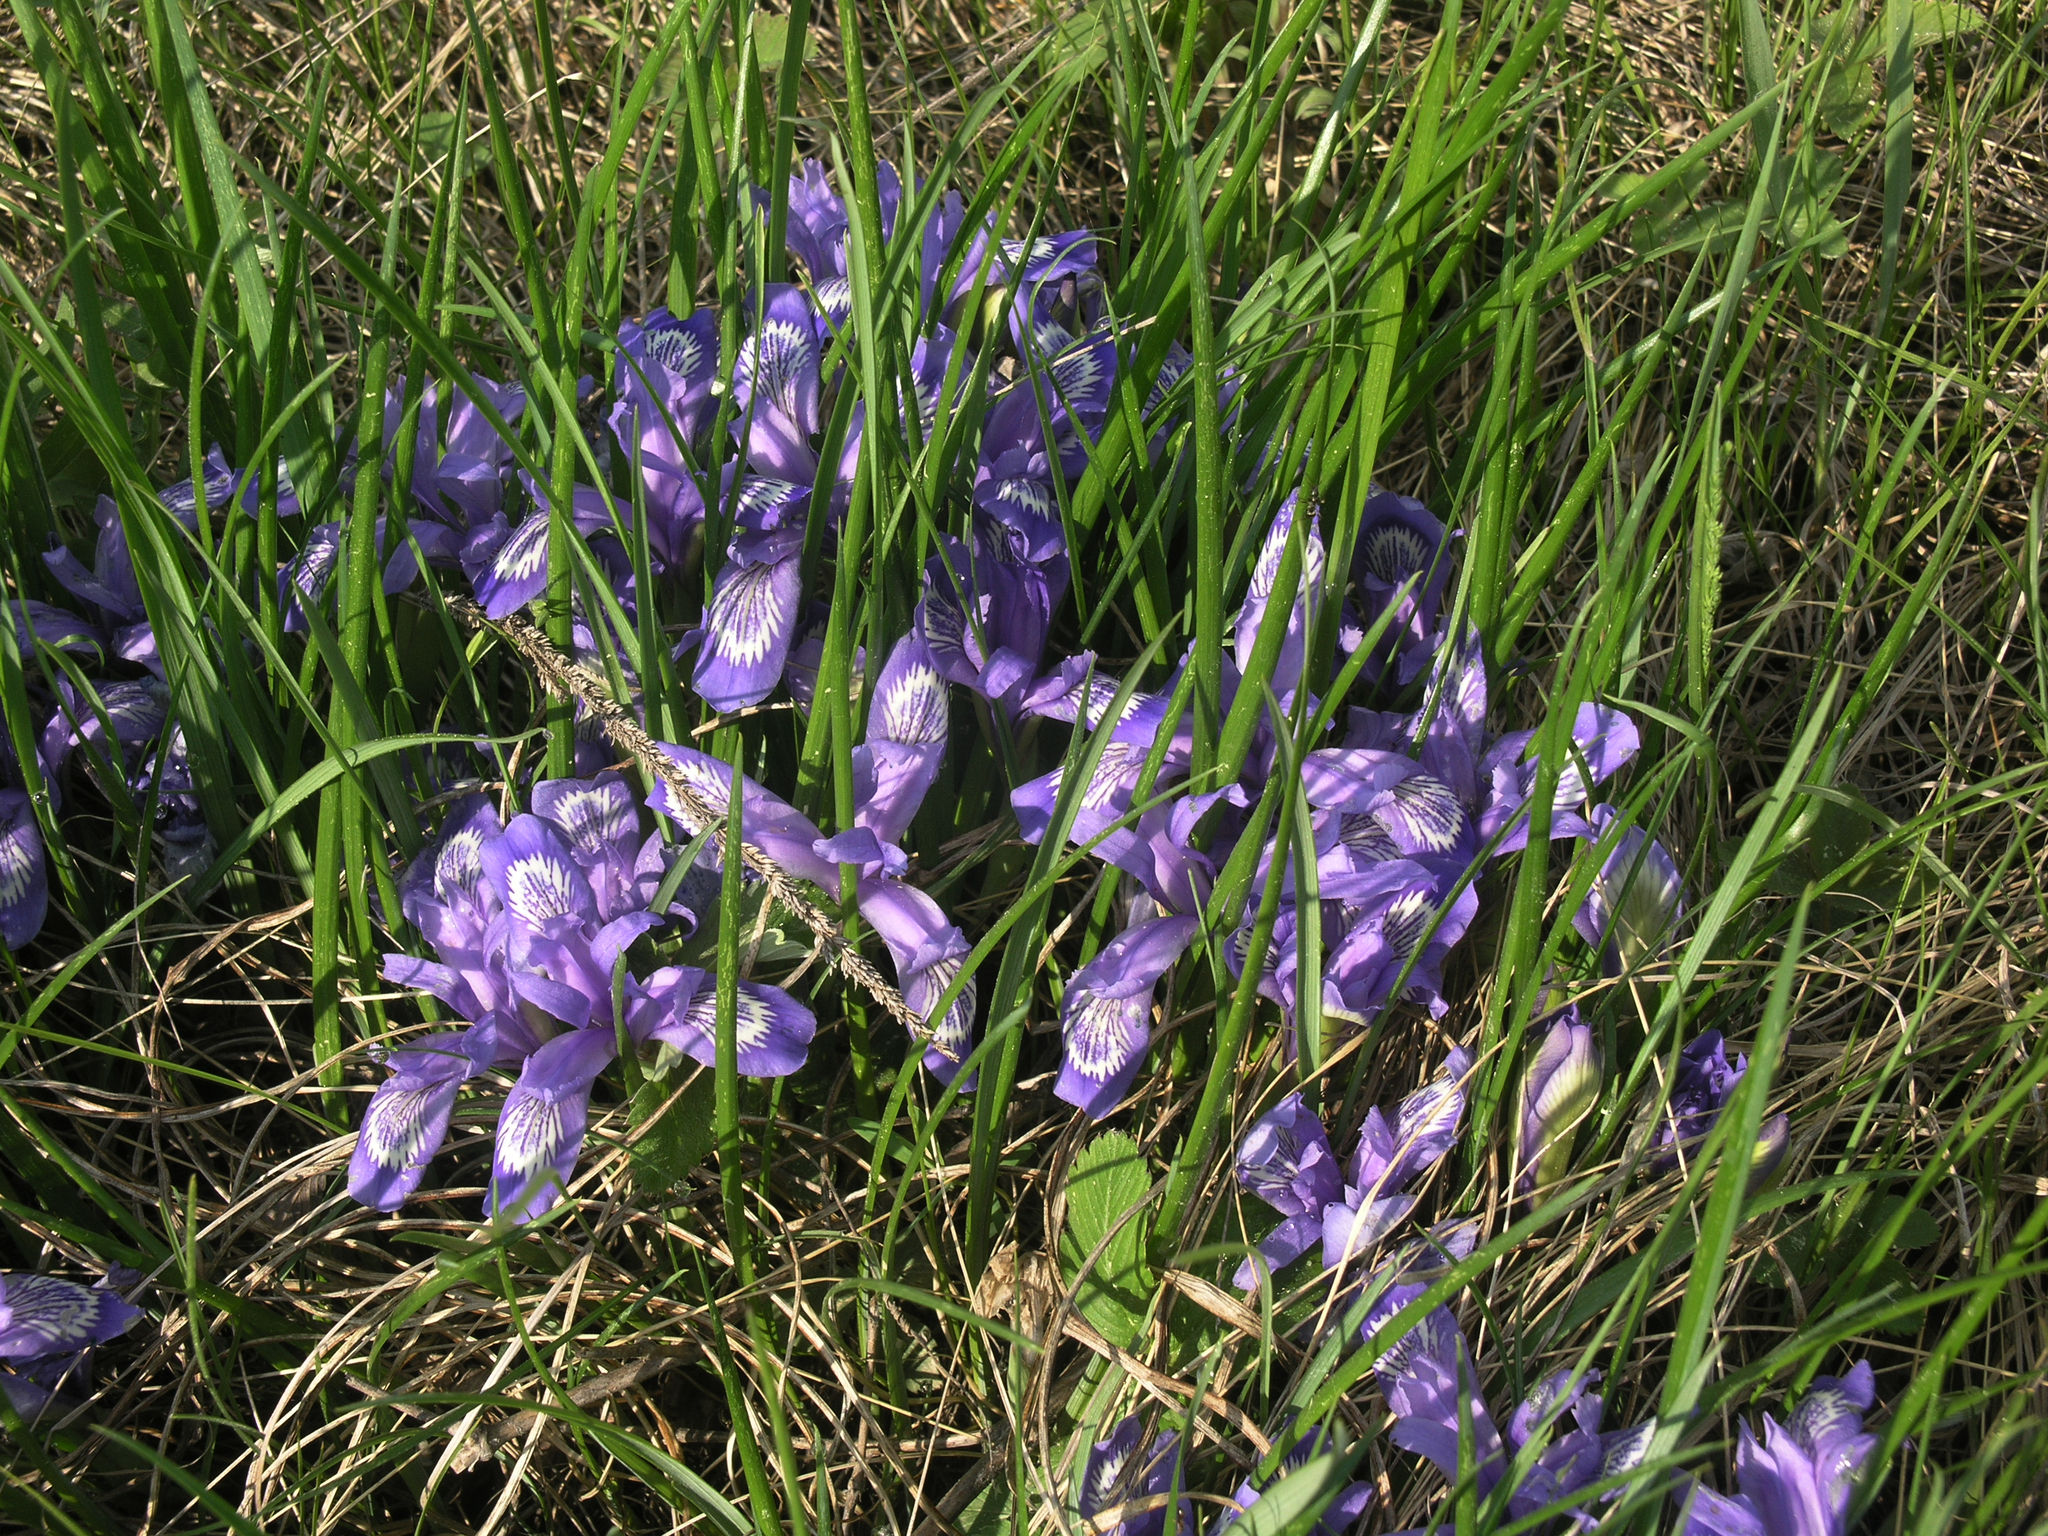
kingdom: Plantae
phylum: Tracheophyta
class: Liliopsida
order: Asparagales
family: Iridaceae
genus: Iris
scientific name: Iris ruthenica
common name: Purple-bract iris
